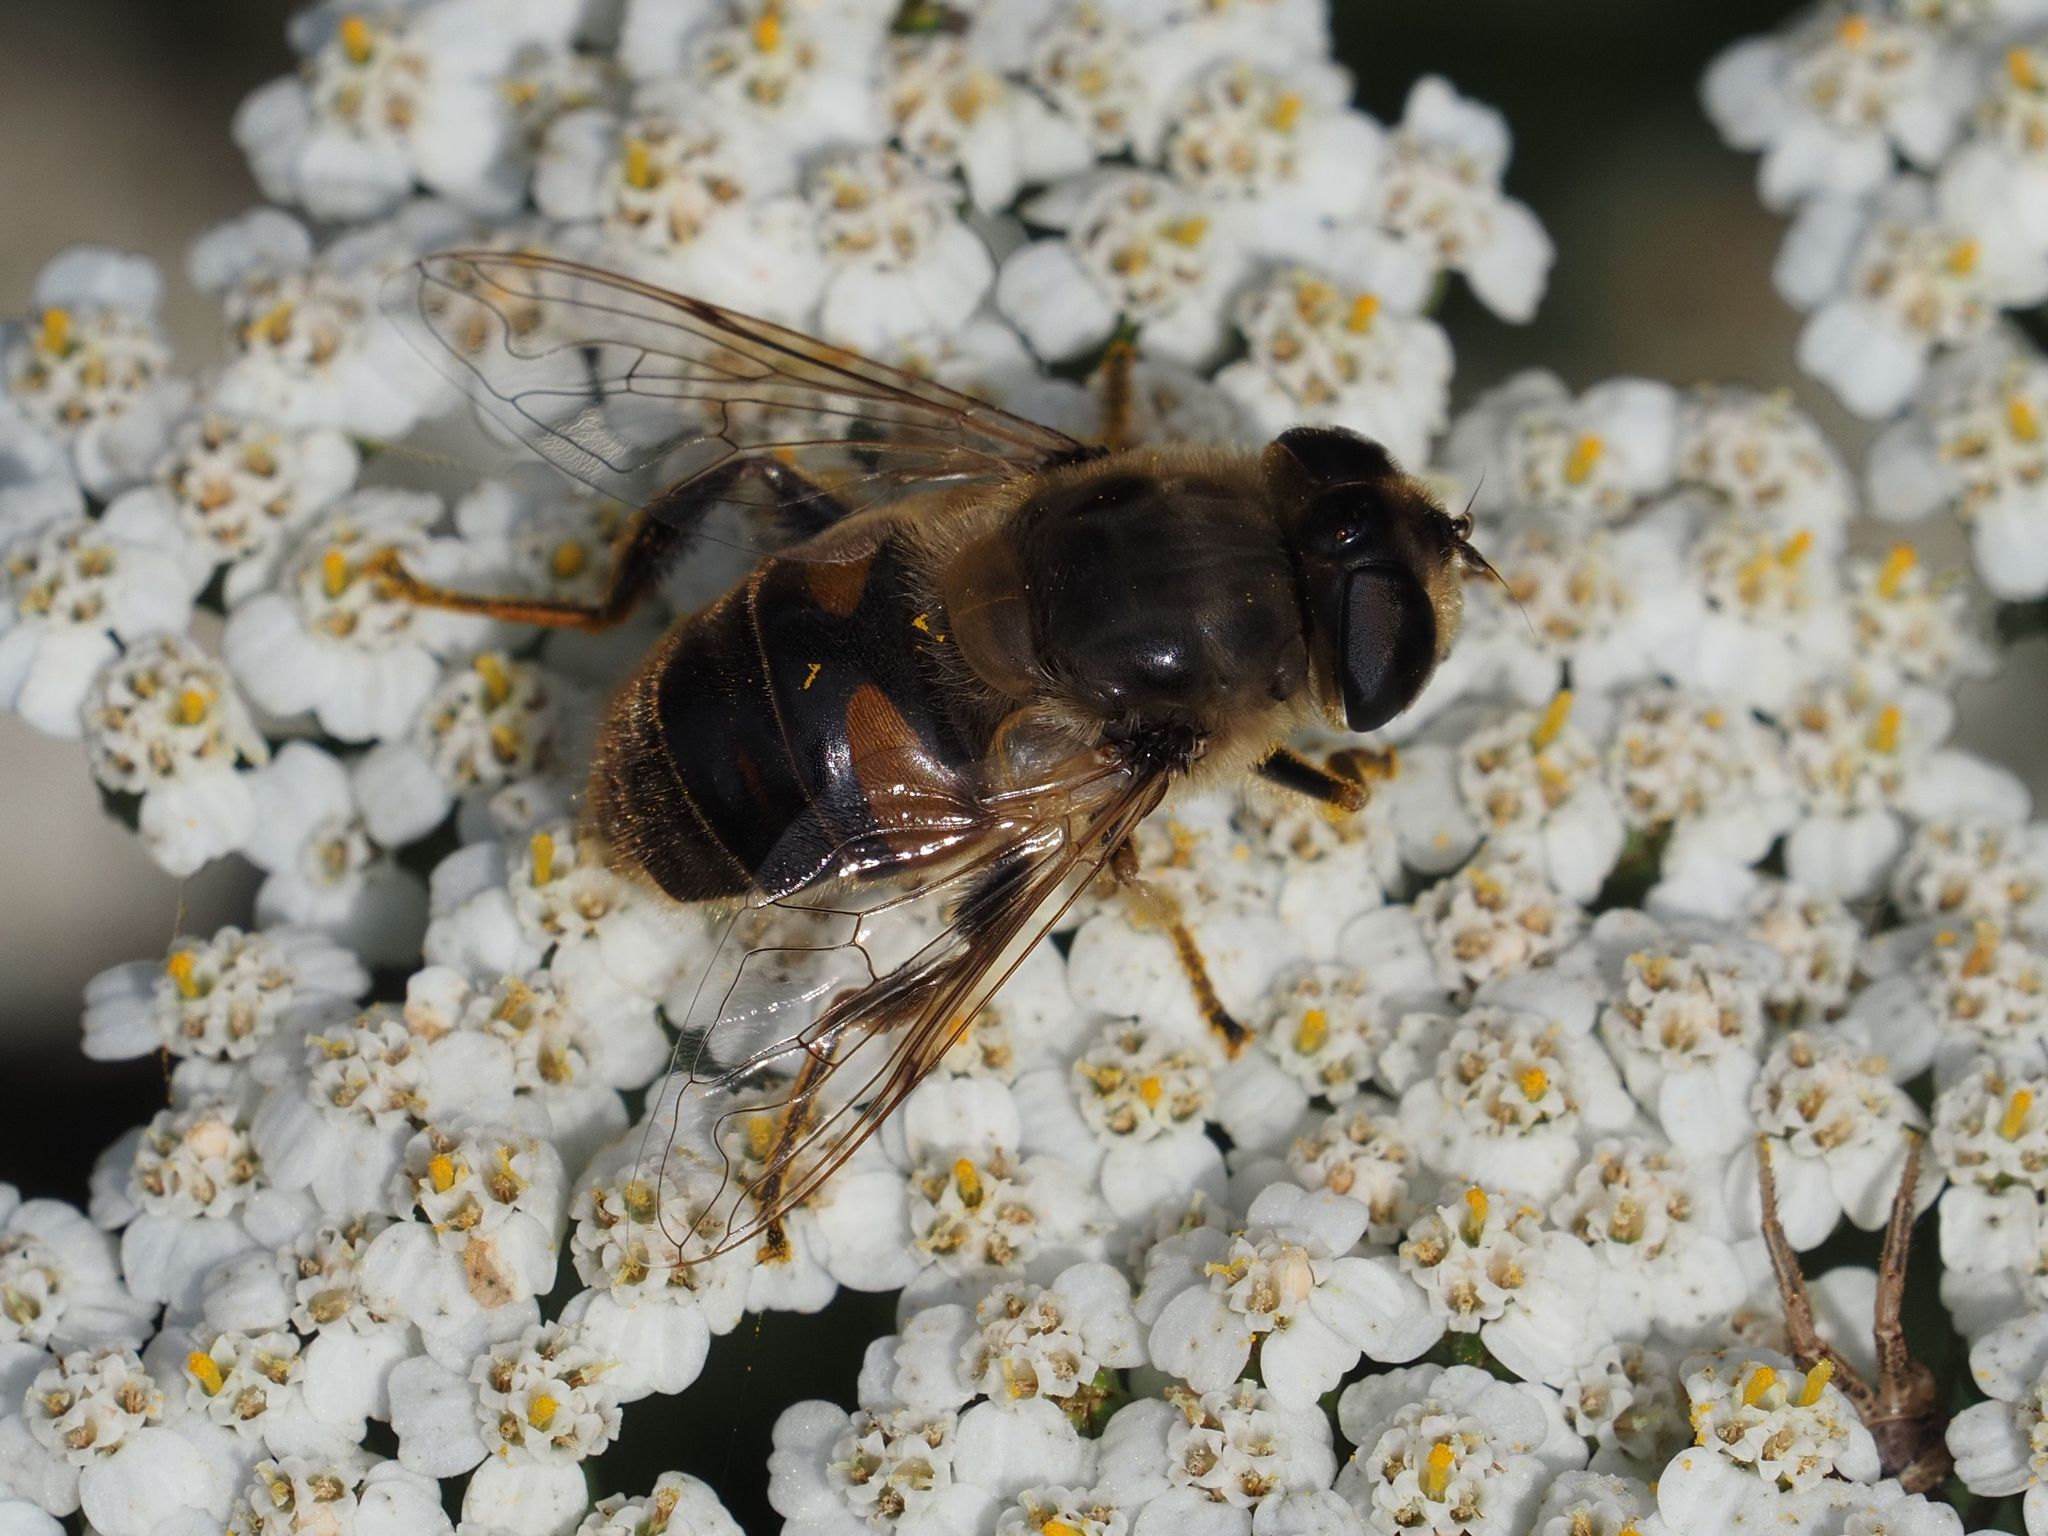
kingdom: Animalia
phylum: Arthropoda
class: Insecta
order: Diptera
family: Syrphidae
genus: Eristalis
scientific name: Eristalis tenax
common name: Drone fly
